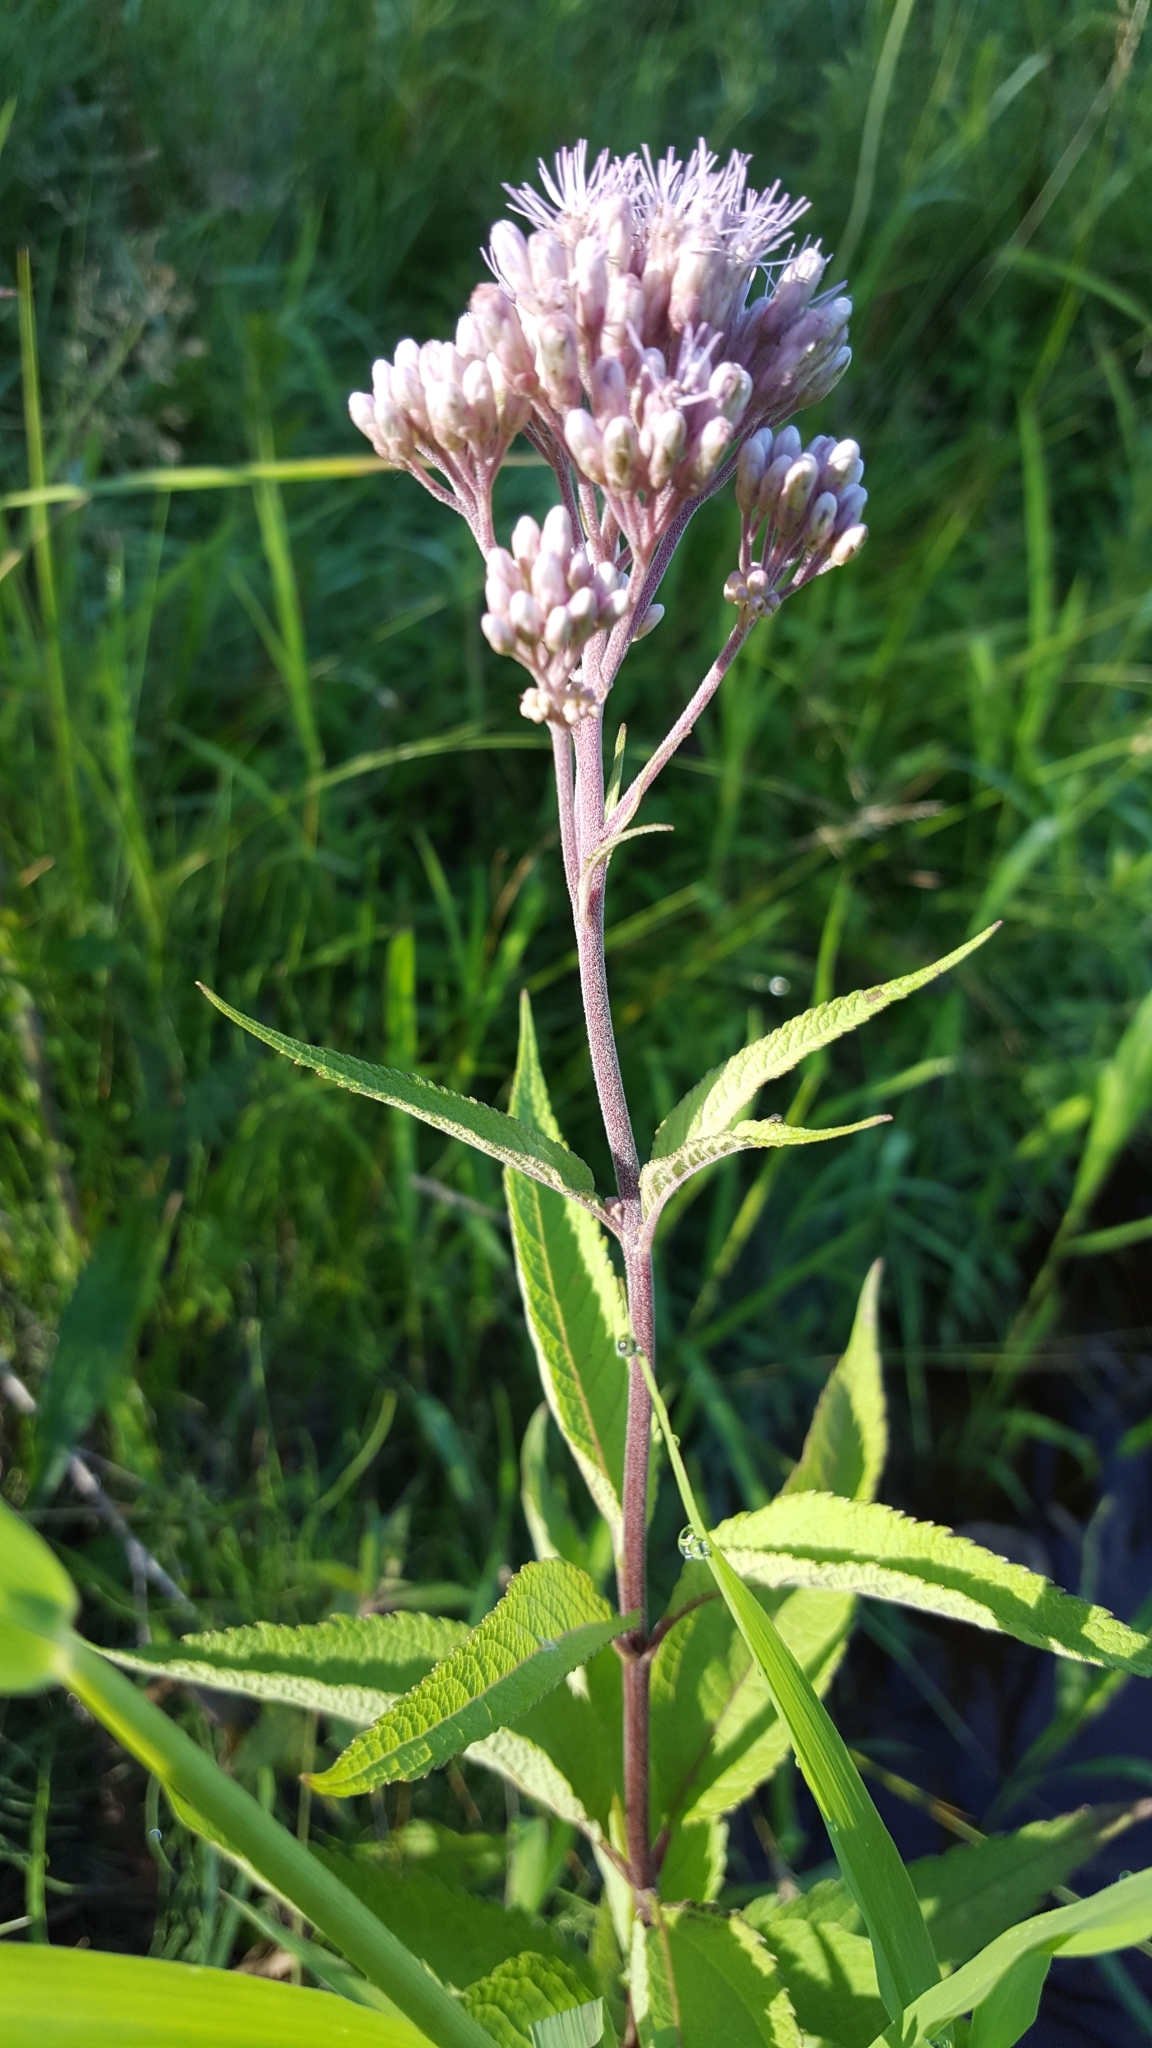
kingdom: Plantae
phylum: Tracheophyta
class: Magnoliopsida
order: Asterales
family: Asteraceae
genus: Eutrochium
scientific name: Eutrochium maculatum
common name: Spotted joe pye weed
